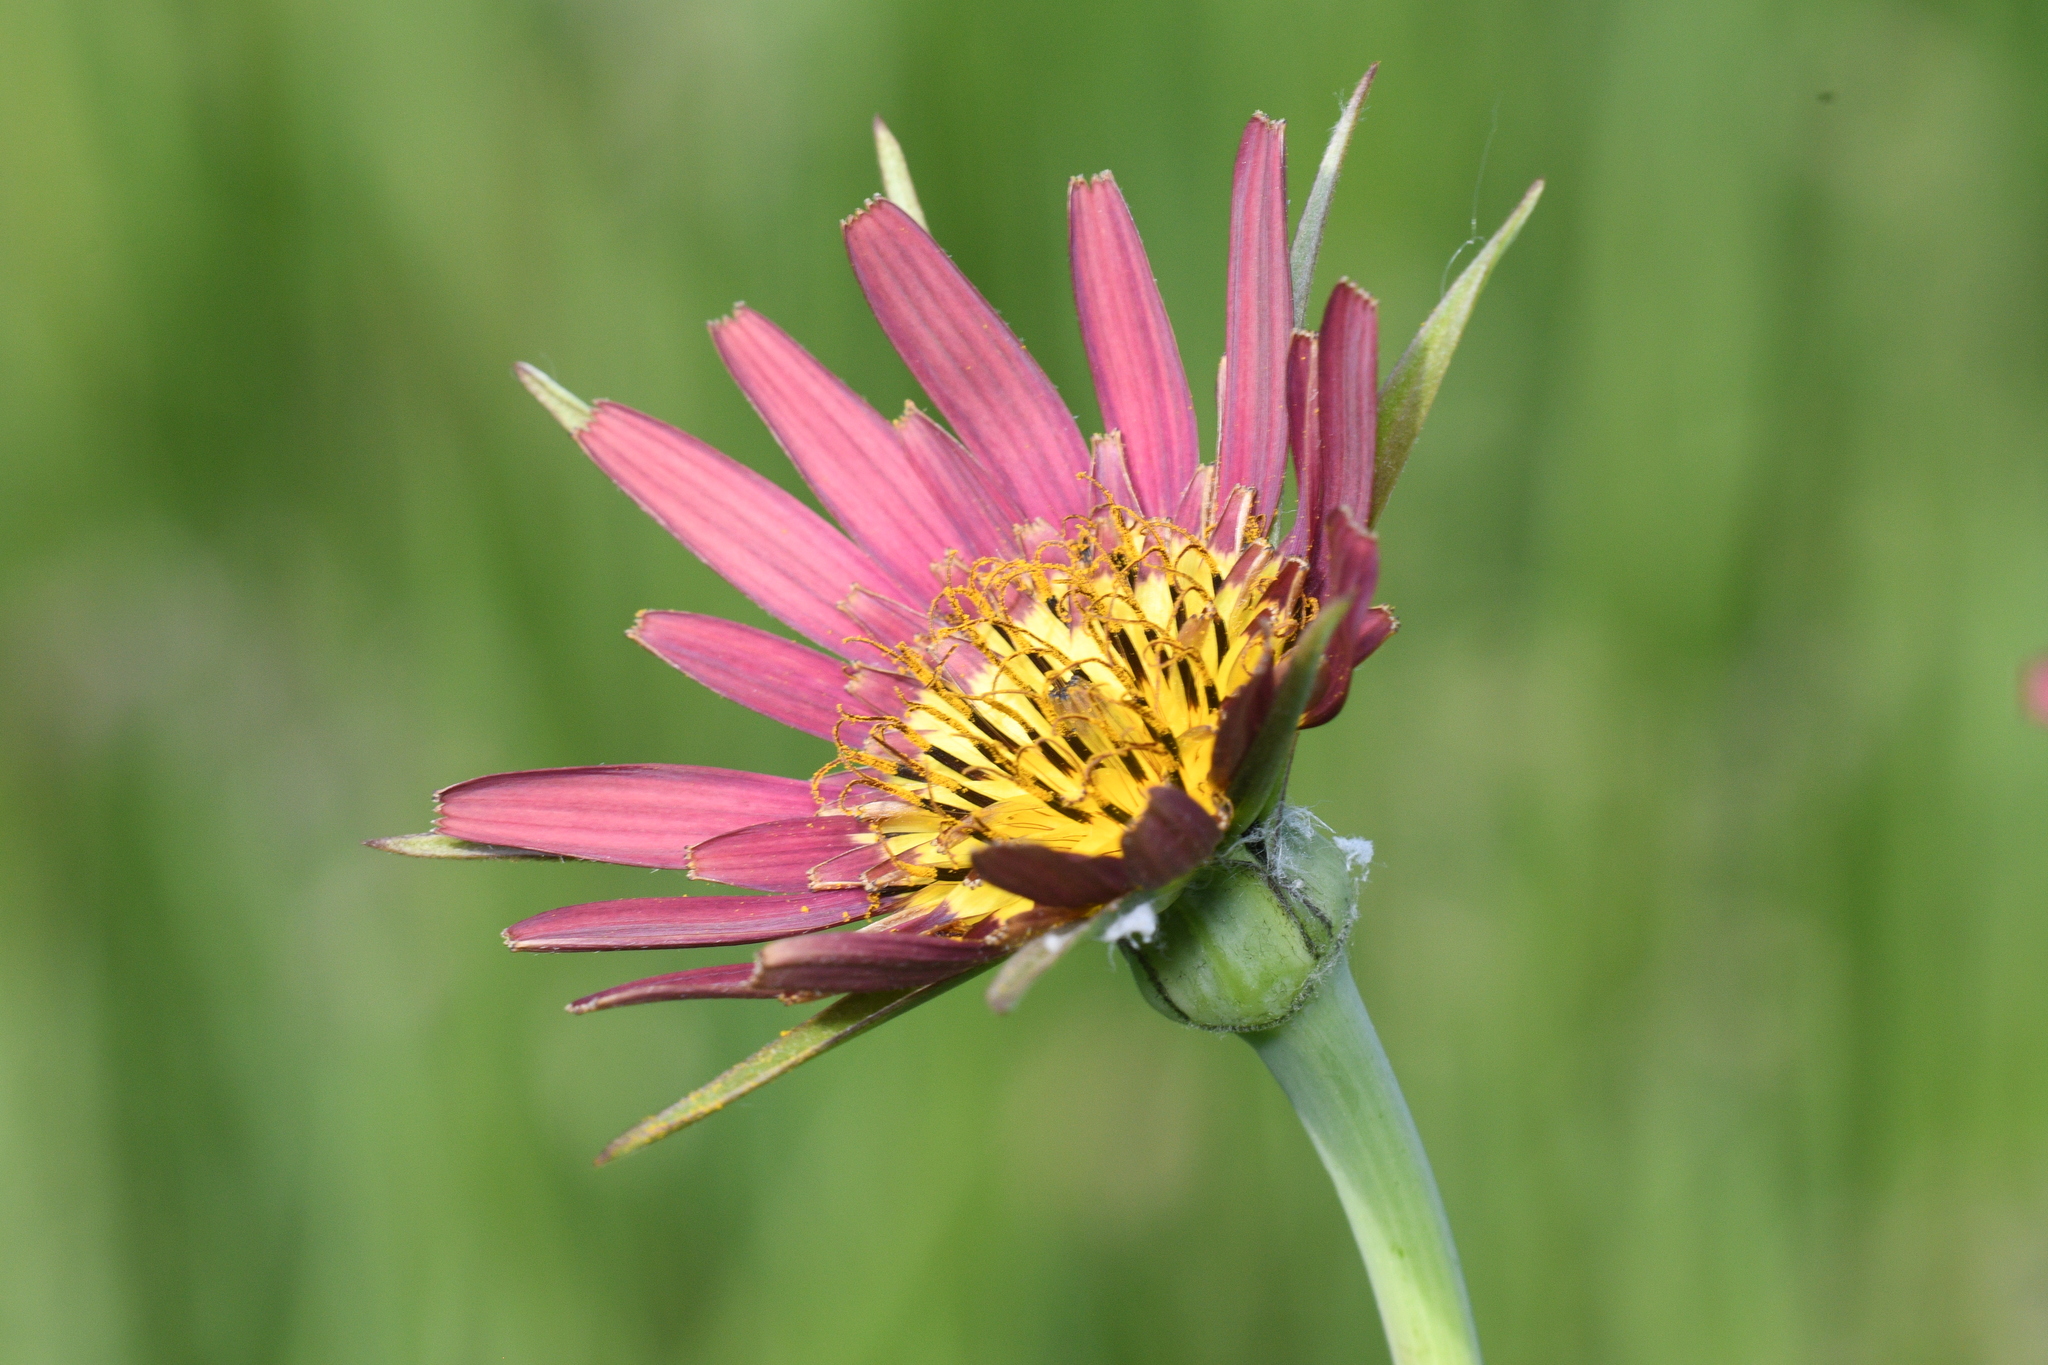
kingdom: Plantae
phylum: Tracheophyta
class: Magnoliopsida
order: Asterales
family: Asteraceae
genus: Tragopogon
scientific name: Tragopogon porrifolius
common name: Salsify
